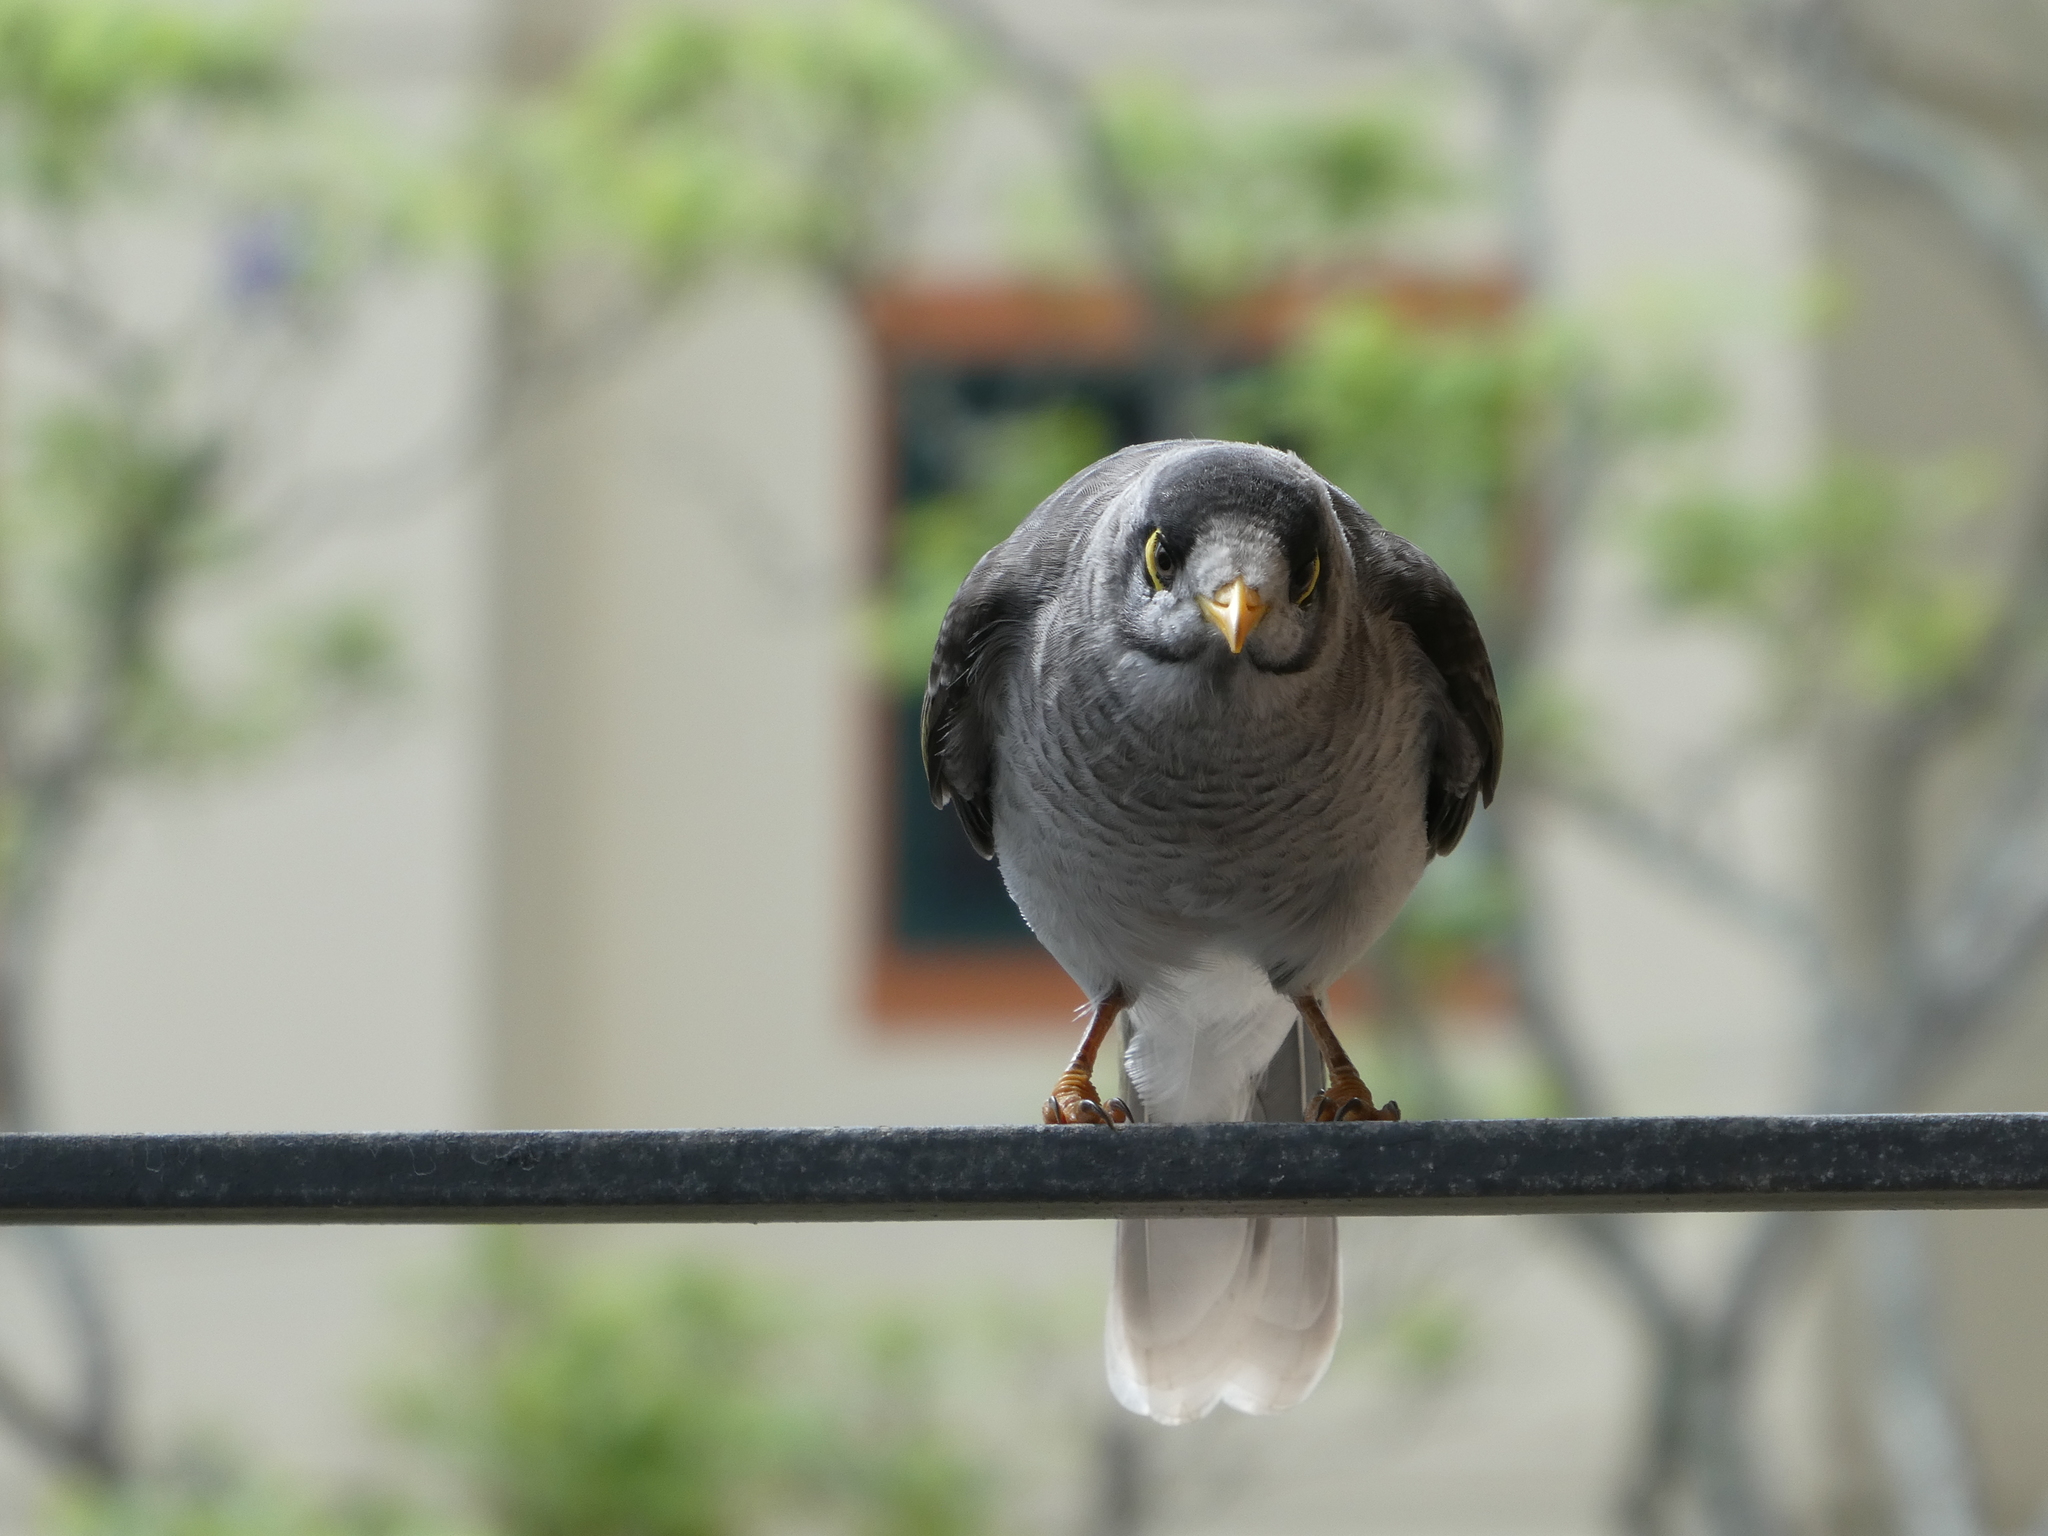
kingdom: Animalia
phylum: Chordata
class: Aves
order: Passeriformes
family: Meliphagidae
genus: Manorina
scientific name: Manorina melanocephala
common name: Noisy miner
